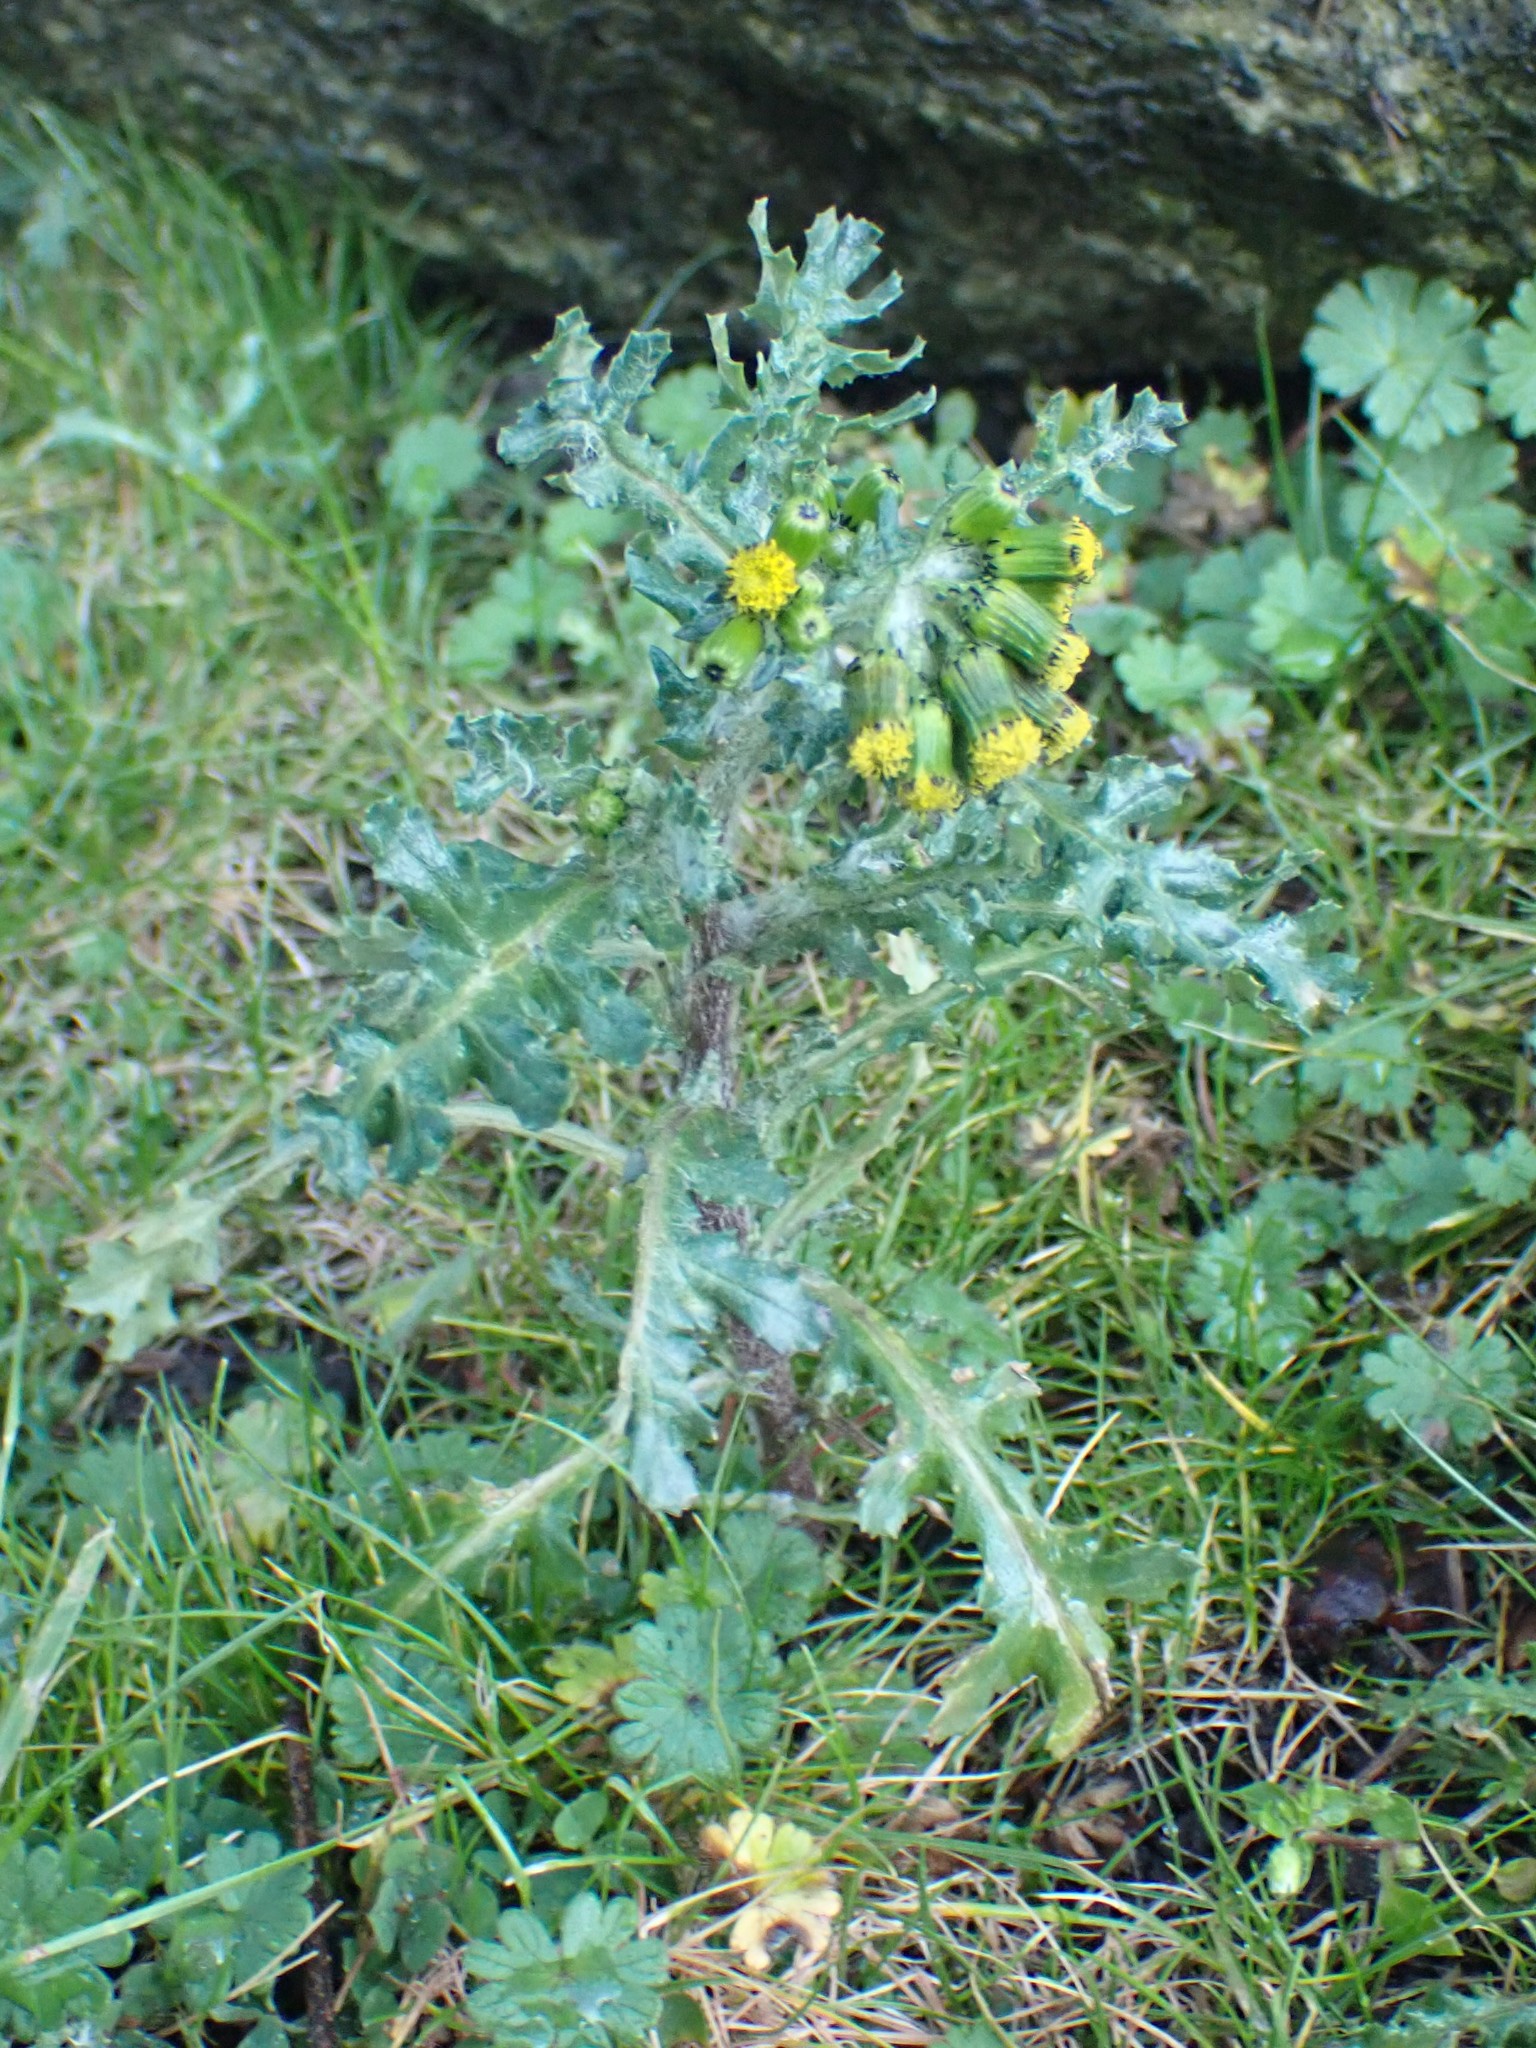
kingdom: Plantae
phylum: Tracheophyta
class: Magnoliopsida
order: Asterales
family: Asteraceae
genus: Senecio
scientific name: Senecio vulgaris
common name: Old-man-in-the-spring
